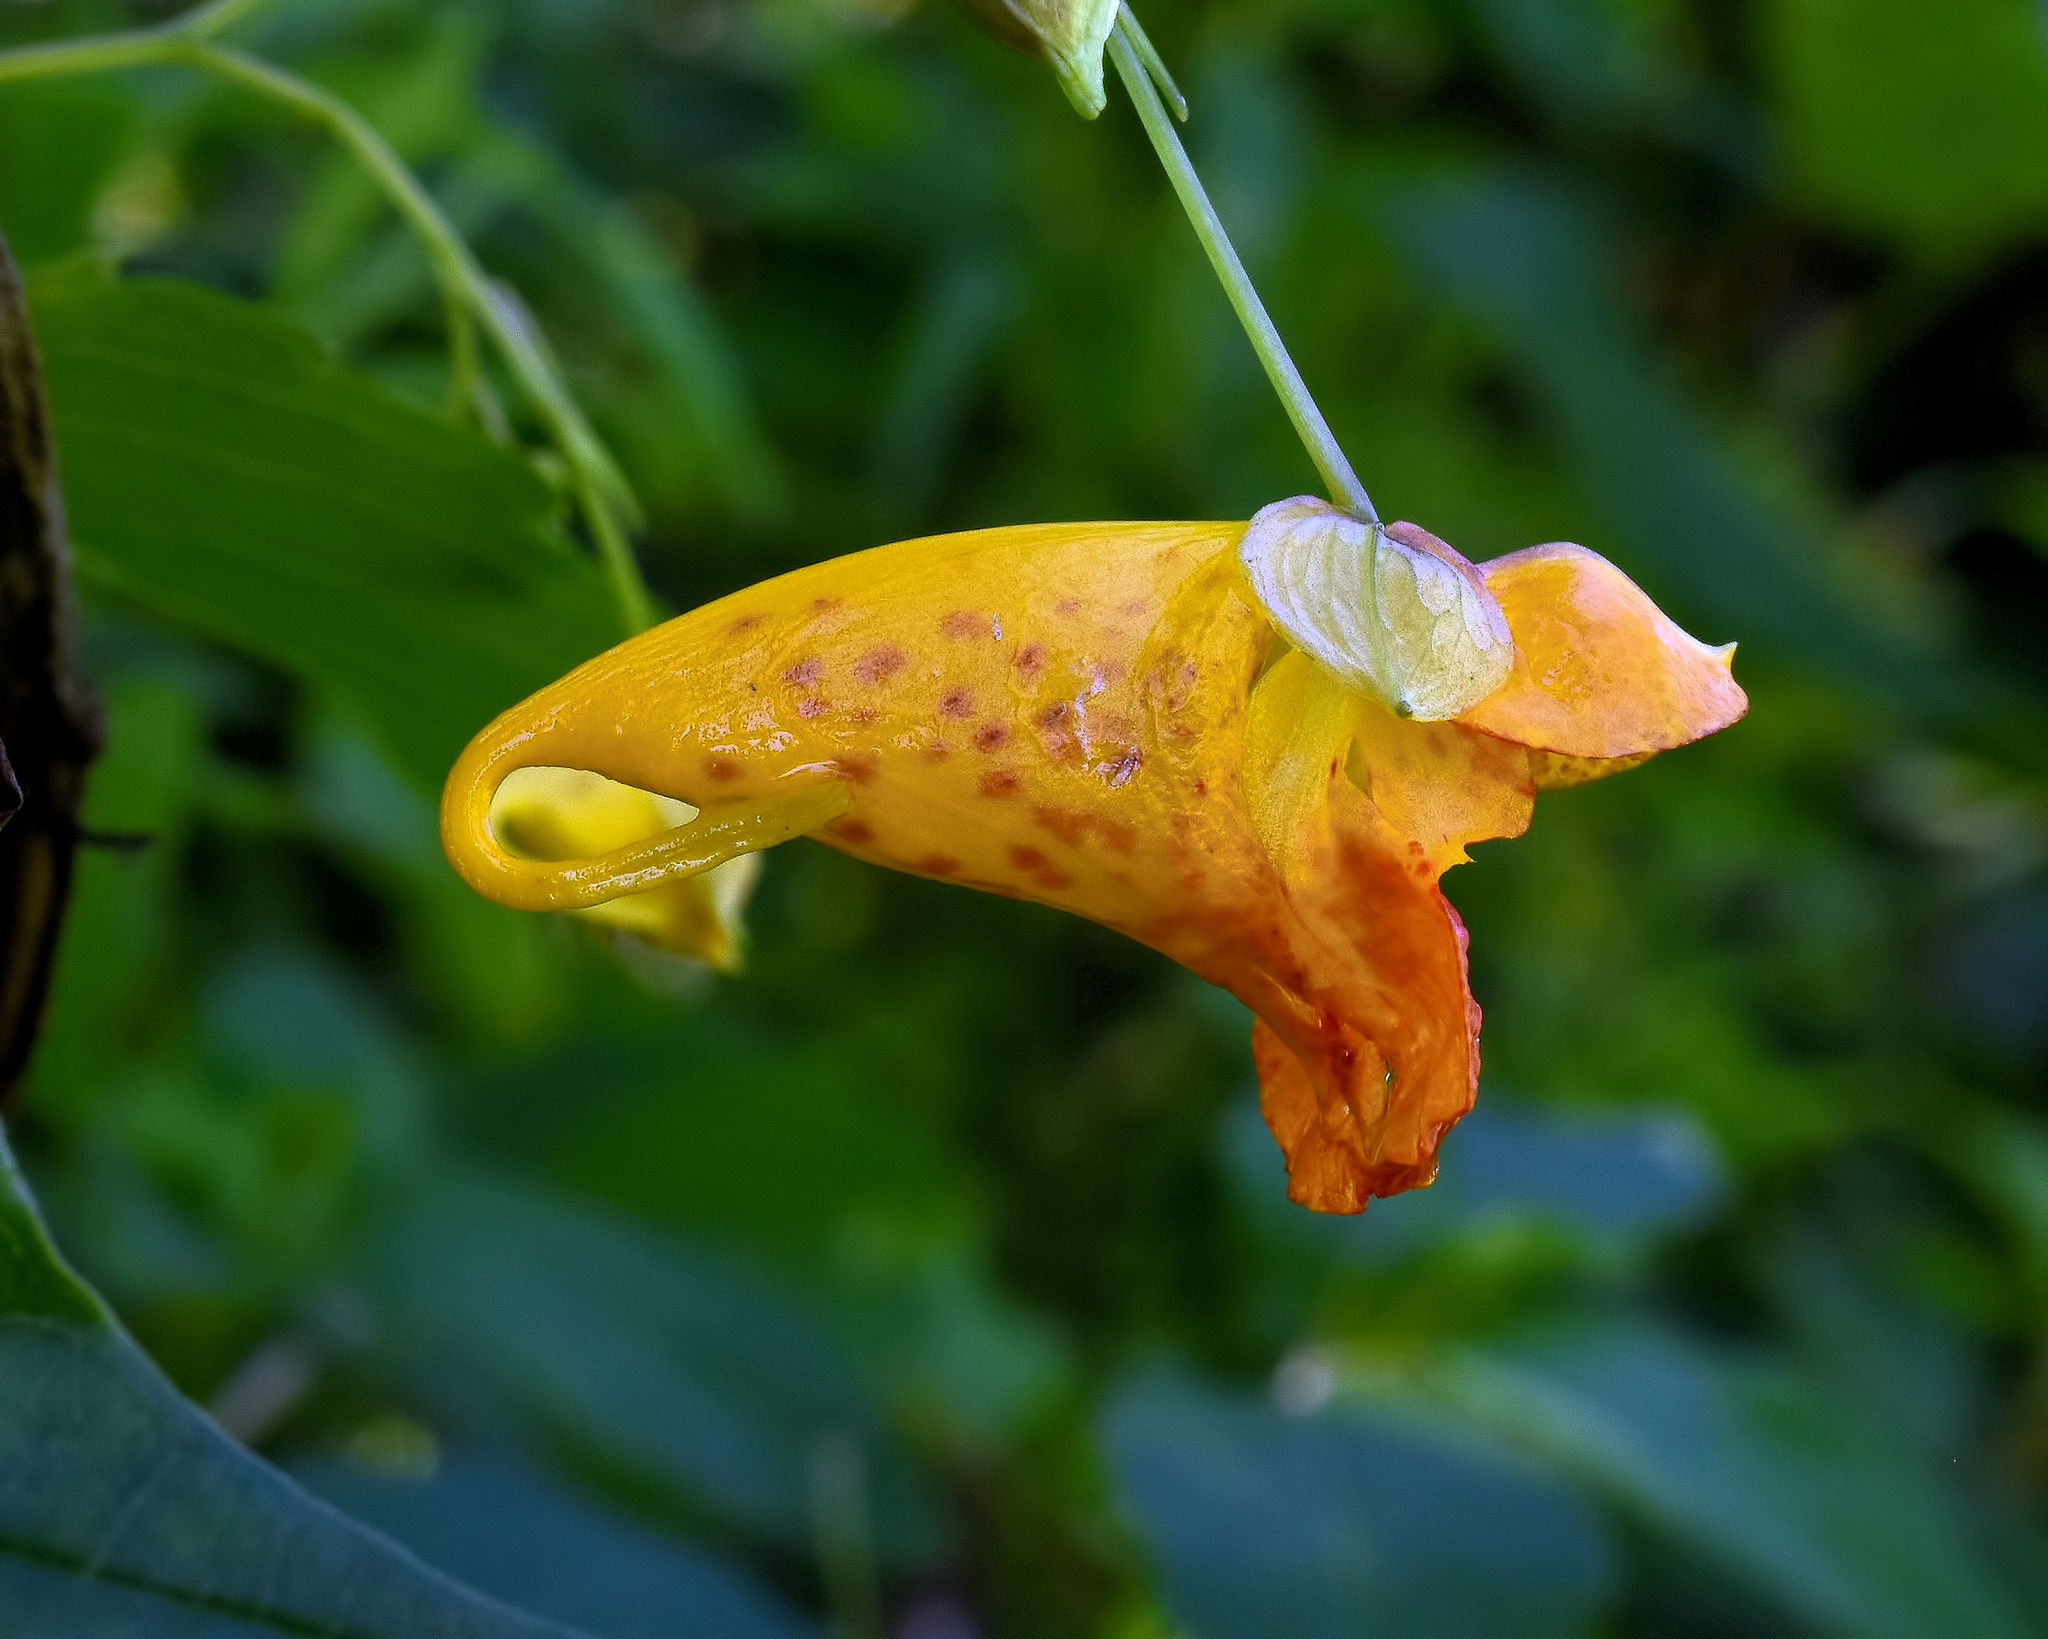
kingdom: Plantae
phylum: Tracheophyta
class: Magnoliopsida
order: Ericales
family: Balsaminaceae
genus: Impatiens
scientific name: Impatiens capensis
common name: Orange balsam
